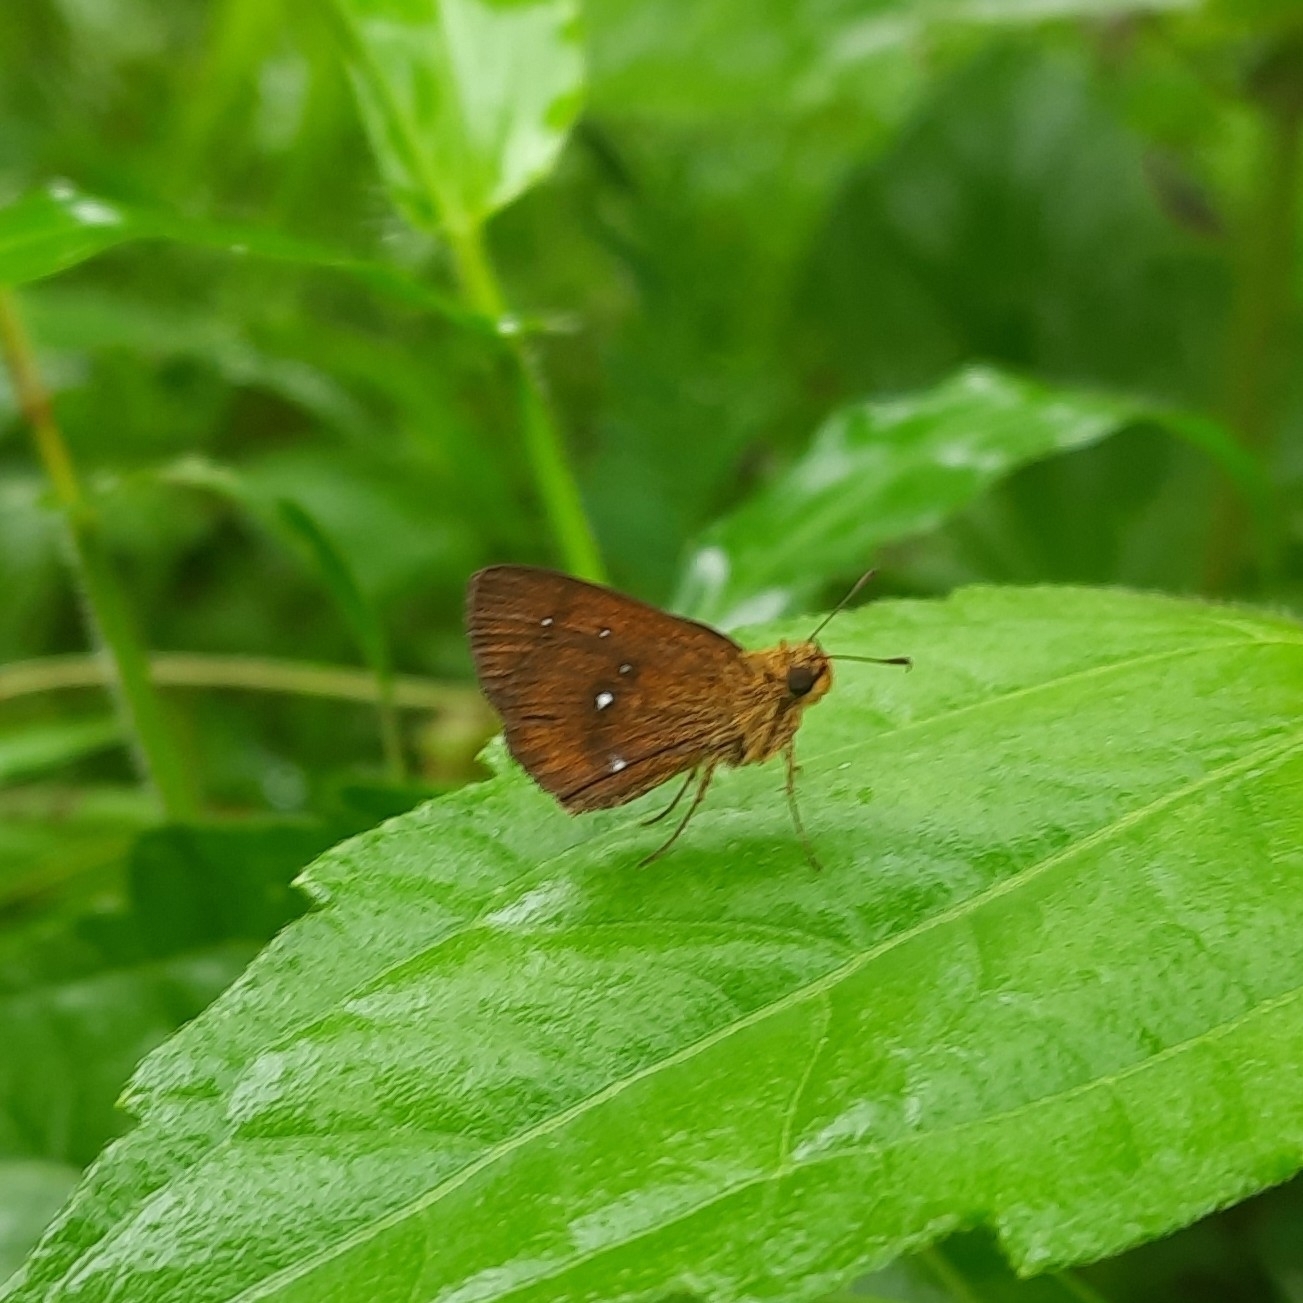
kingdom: Animalia
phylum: Arthropoda
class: Insecta
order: Lepidoptera
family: Hesperiidae
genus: Iambrix
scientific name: Iambrix salsala
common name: Chestnut bob
